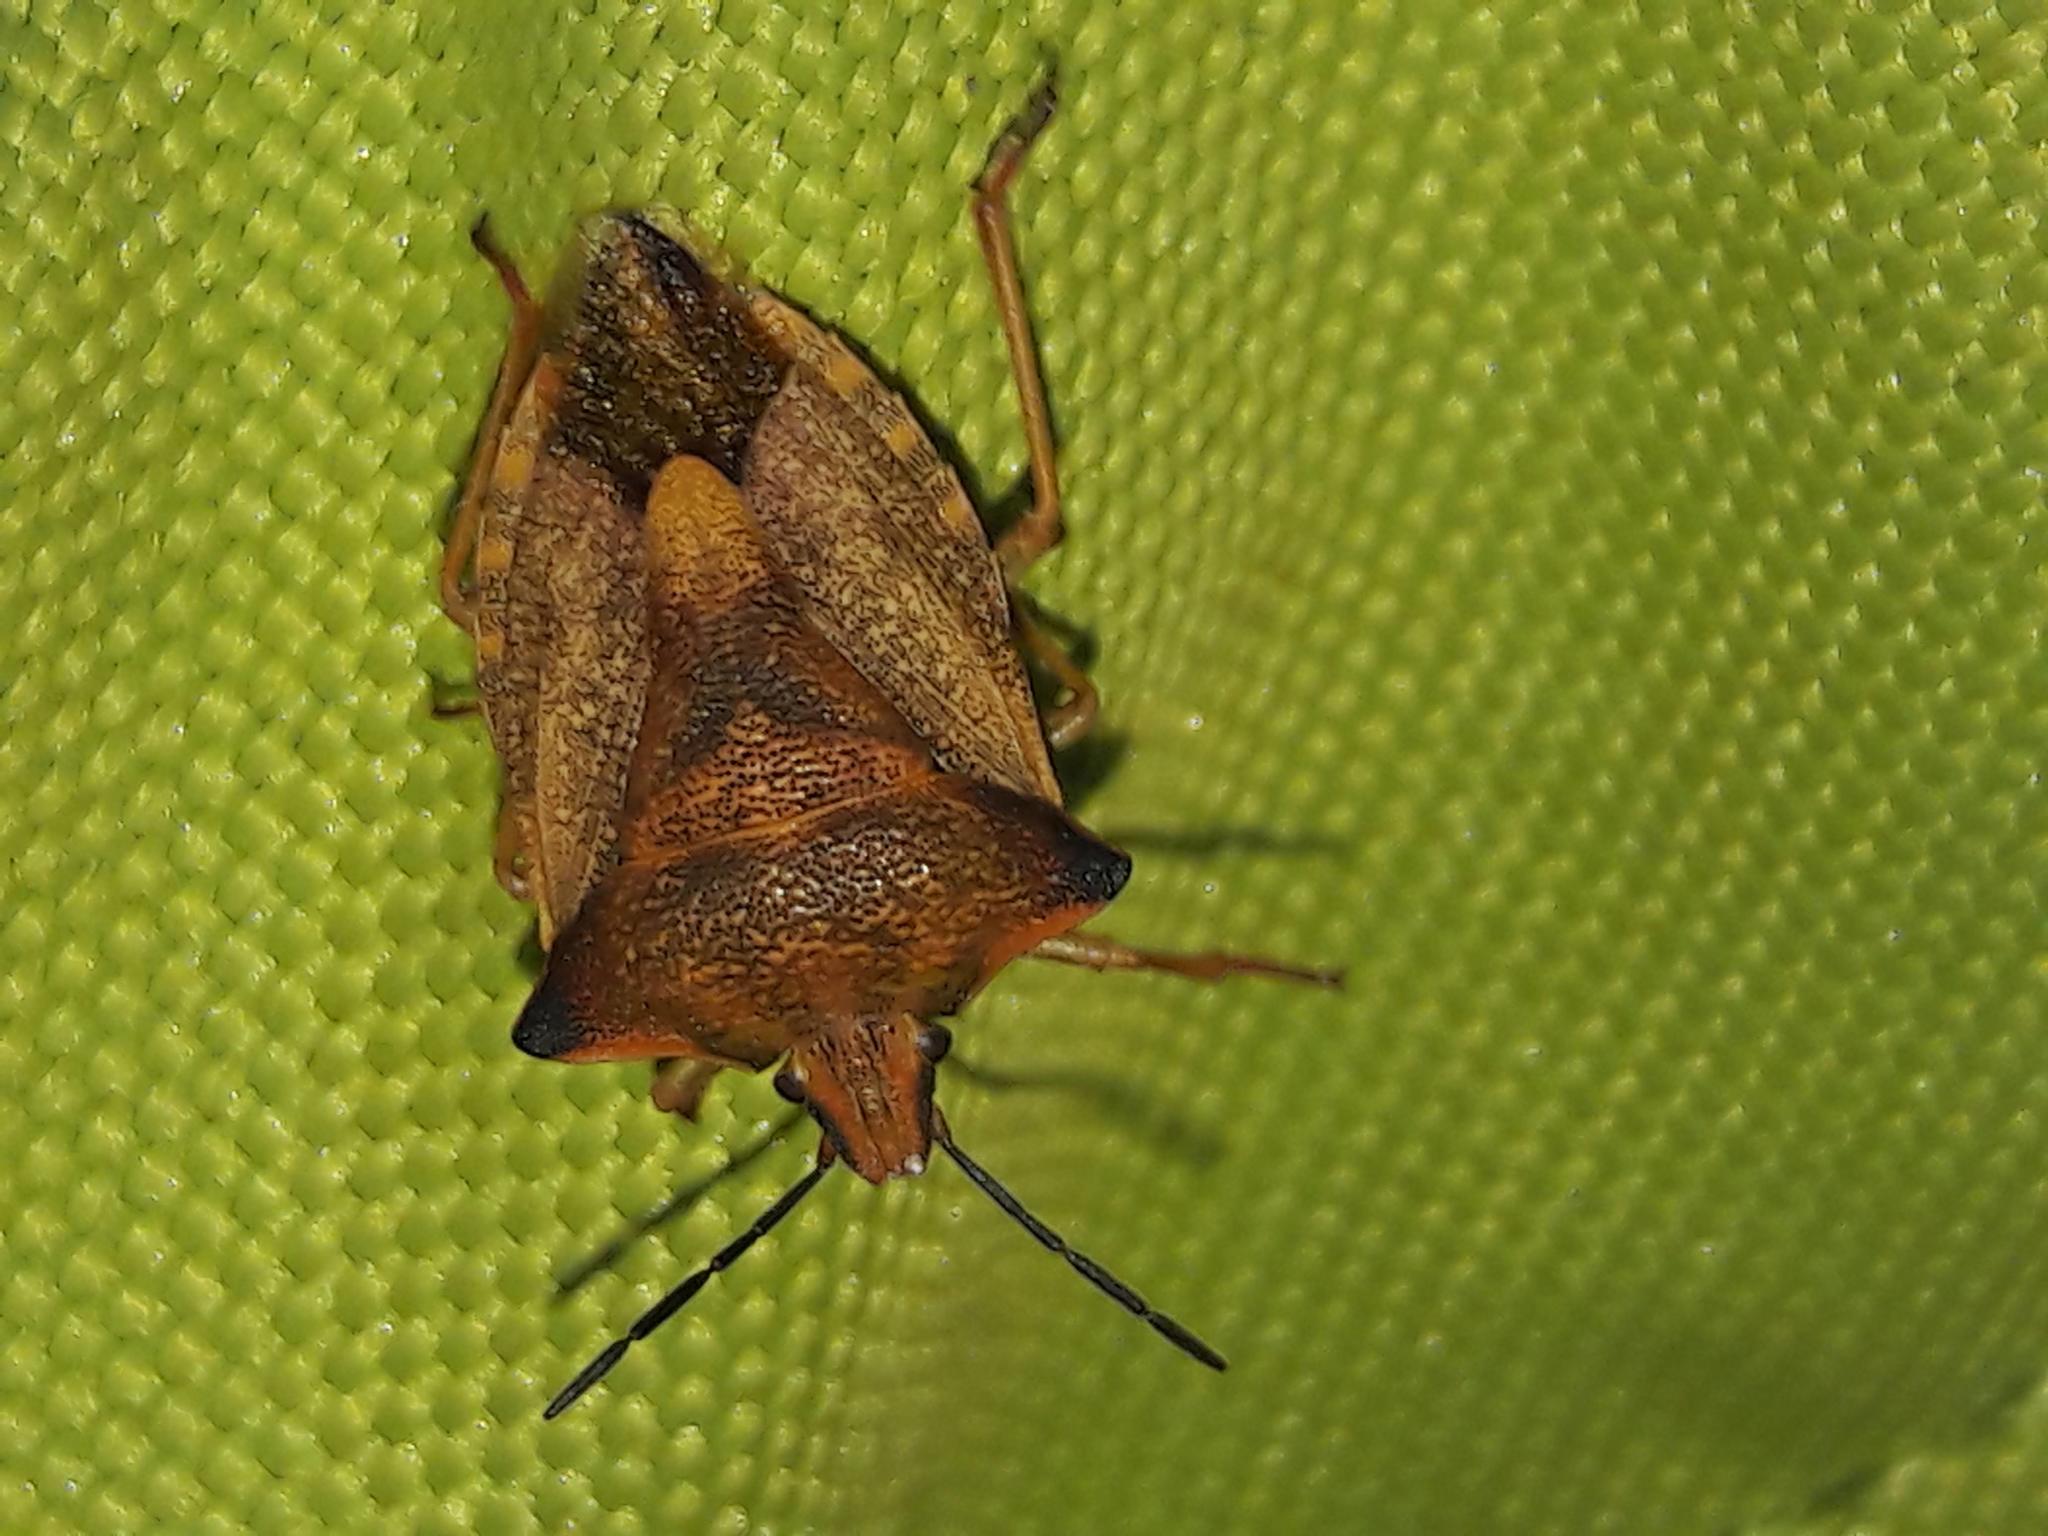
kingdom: Animalia
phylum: Arthropoda
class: Insecta
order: Hemiptera
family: Pentatomidae
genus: Carpocoris
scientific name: Carpocoris mediterraneus
